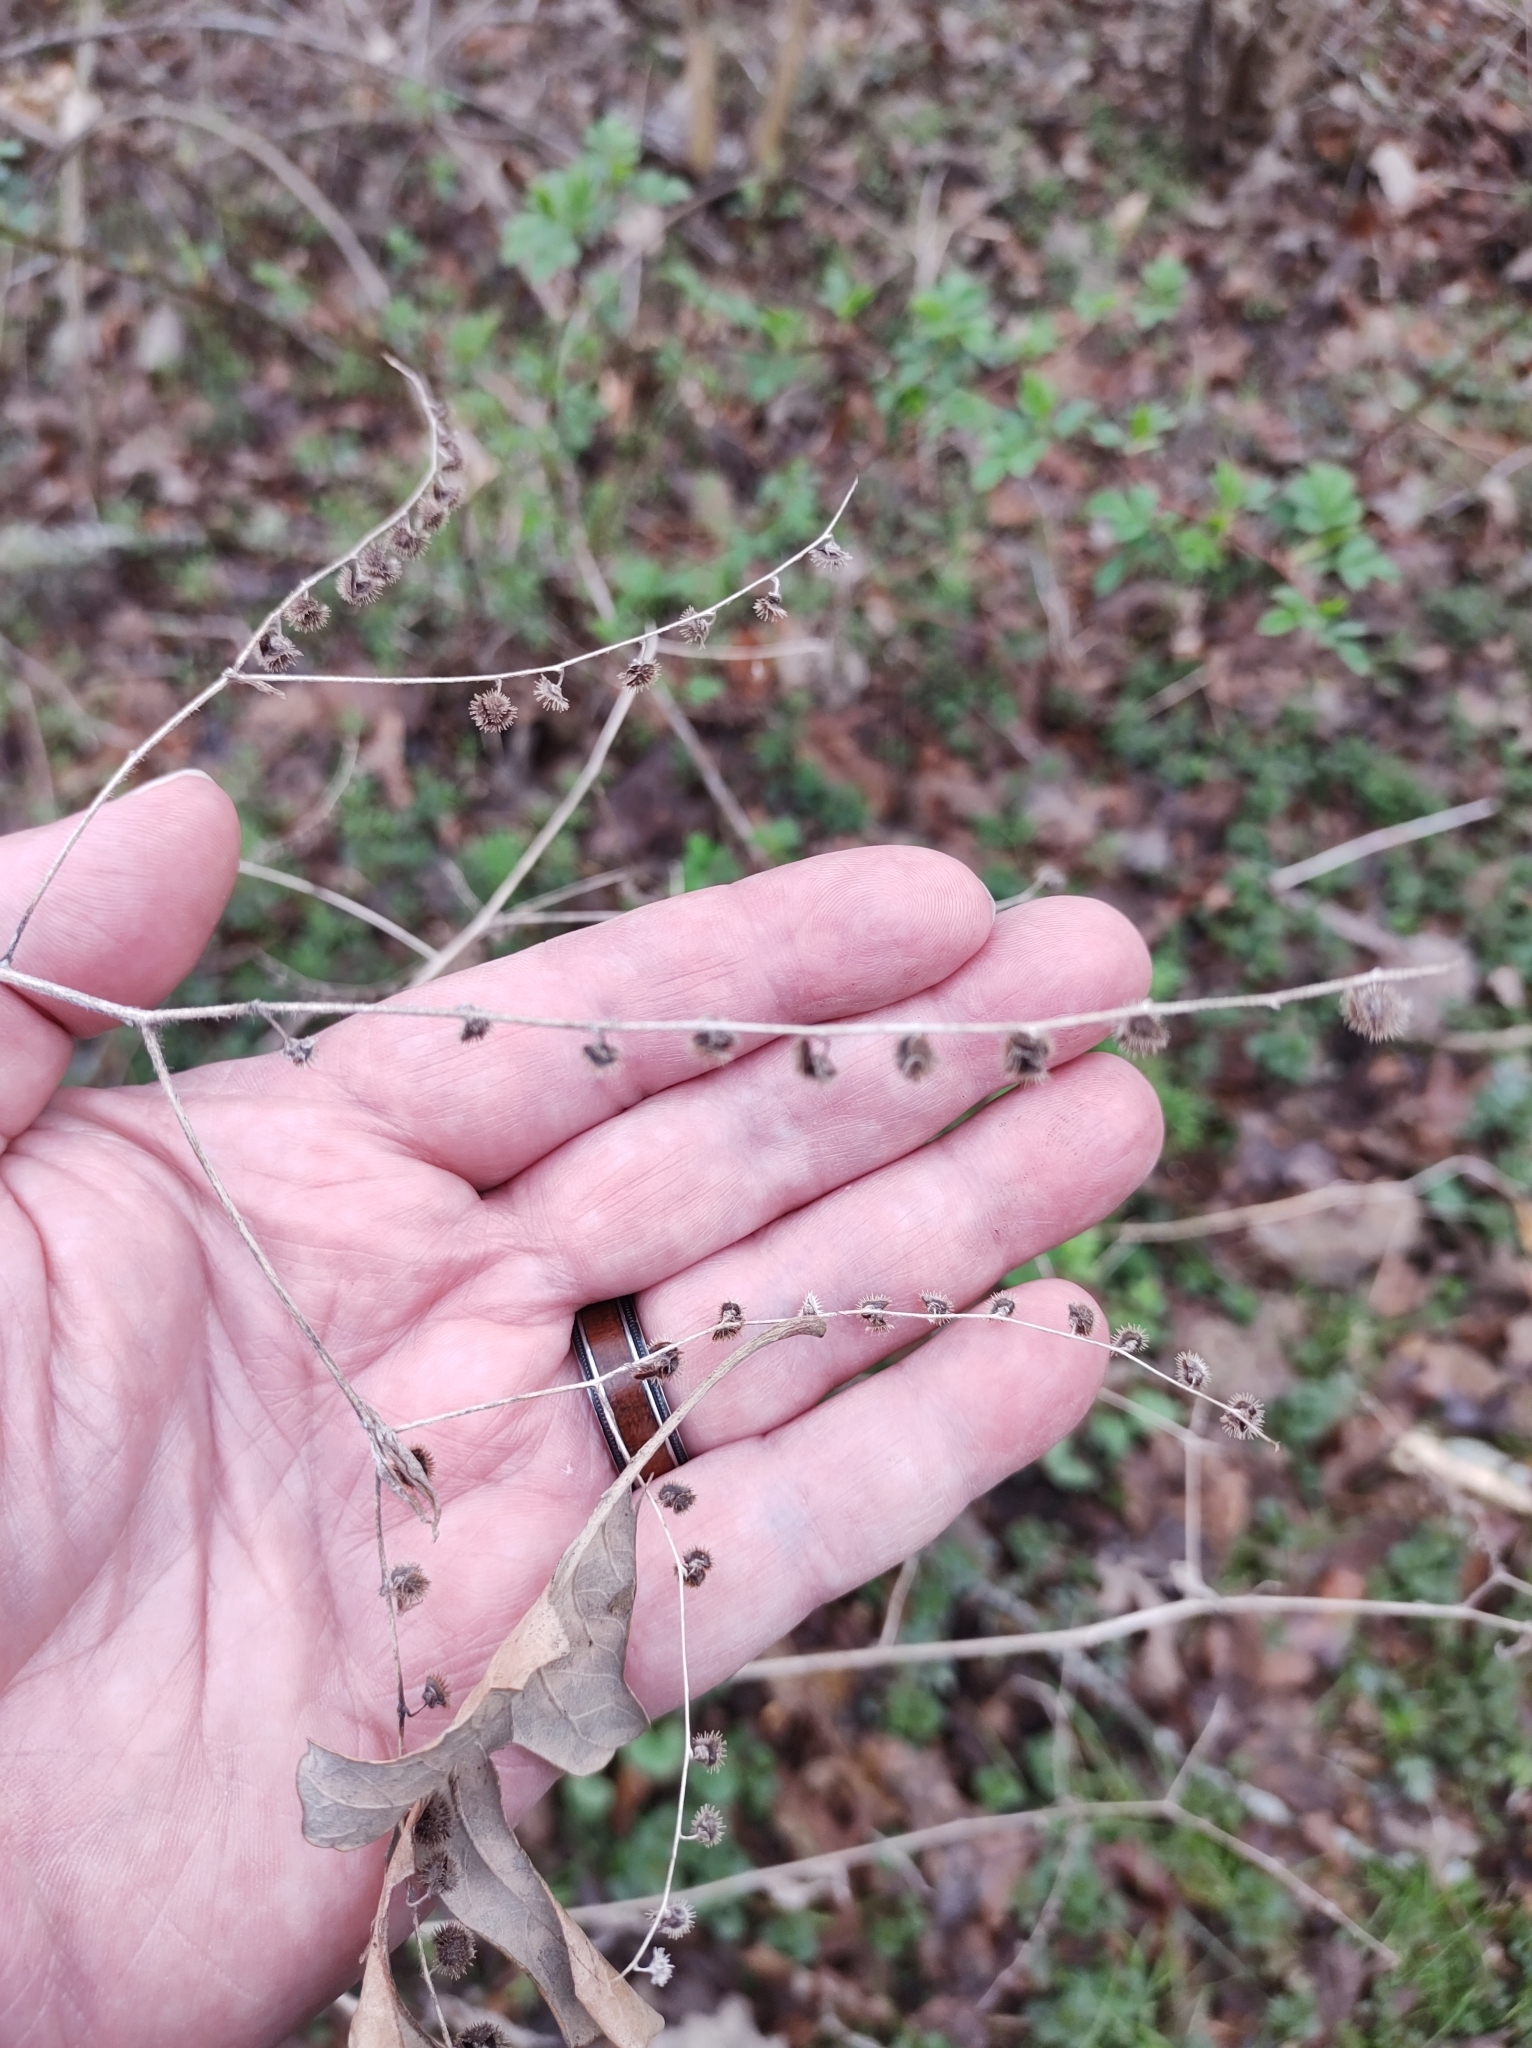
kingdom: Plantae
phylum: Tracheophyta
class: Magnoliopsida
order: Boraginales
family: Boraginaceae
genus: Hackelia
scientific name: Hackelia virginiana
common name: Beggar's-lice
